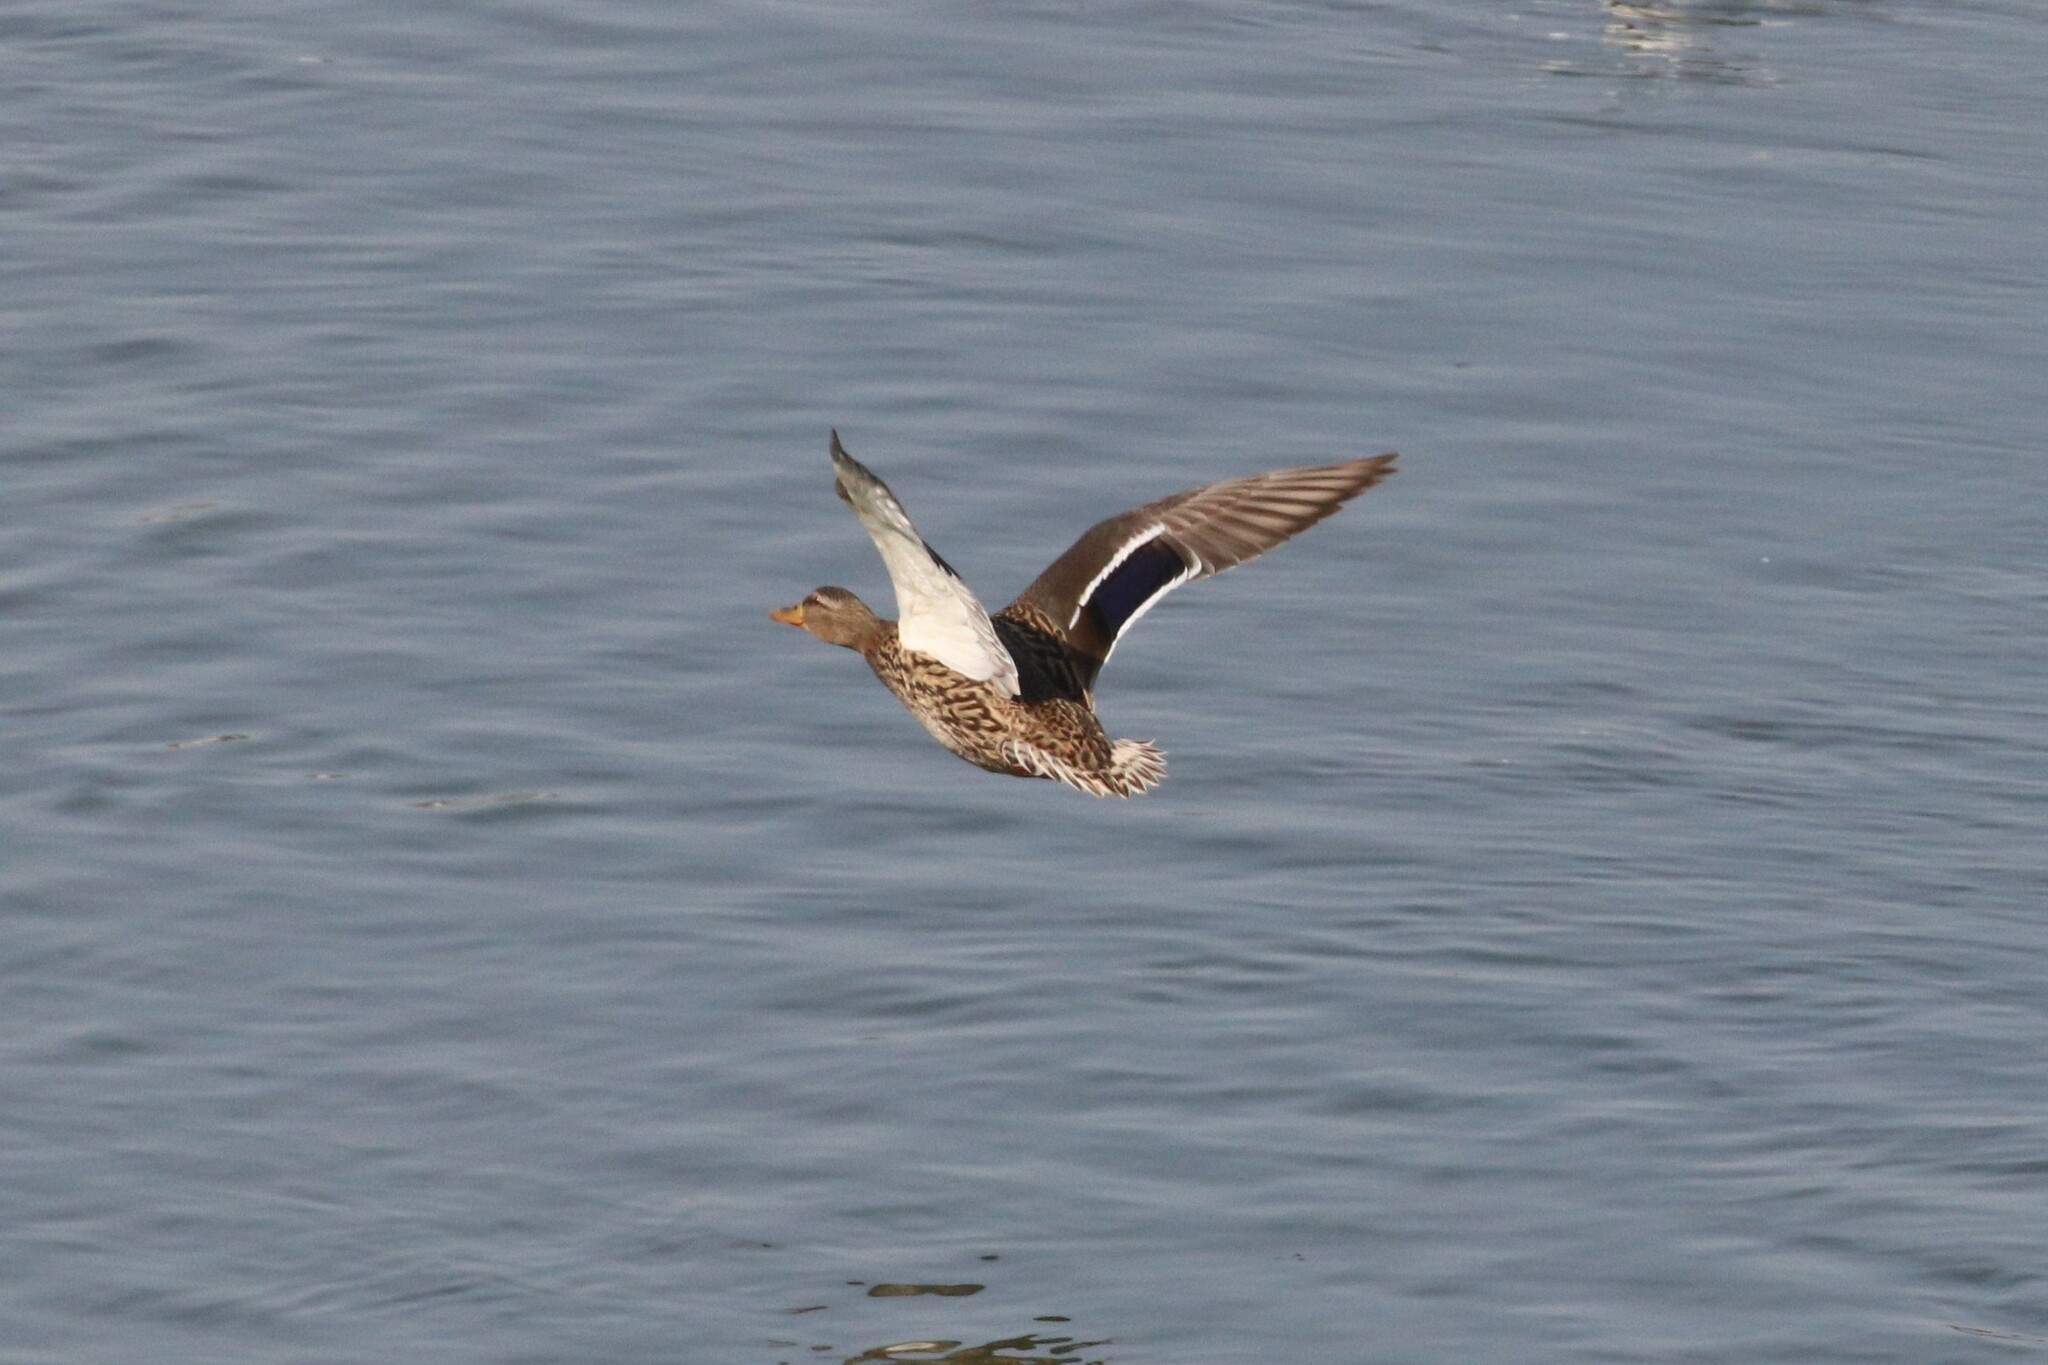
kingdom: Animalia
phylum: Chordata
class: Aves
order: Anseriformes
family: Anatidae
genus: Anas
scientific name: Anas platyrhynchos
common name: Mallard
